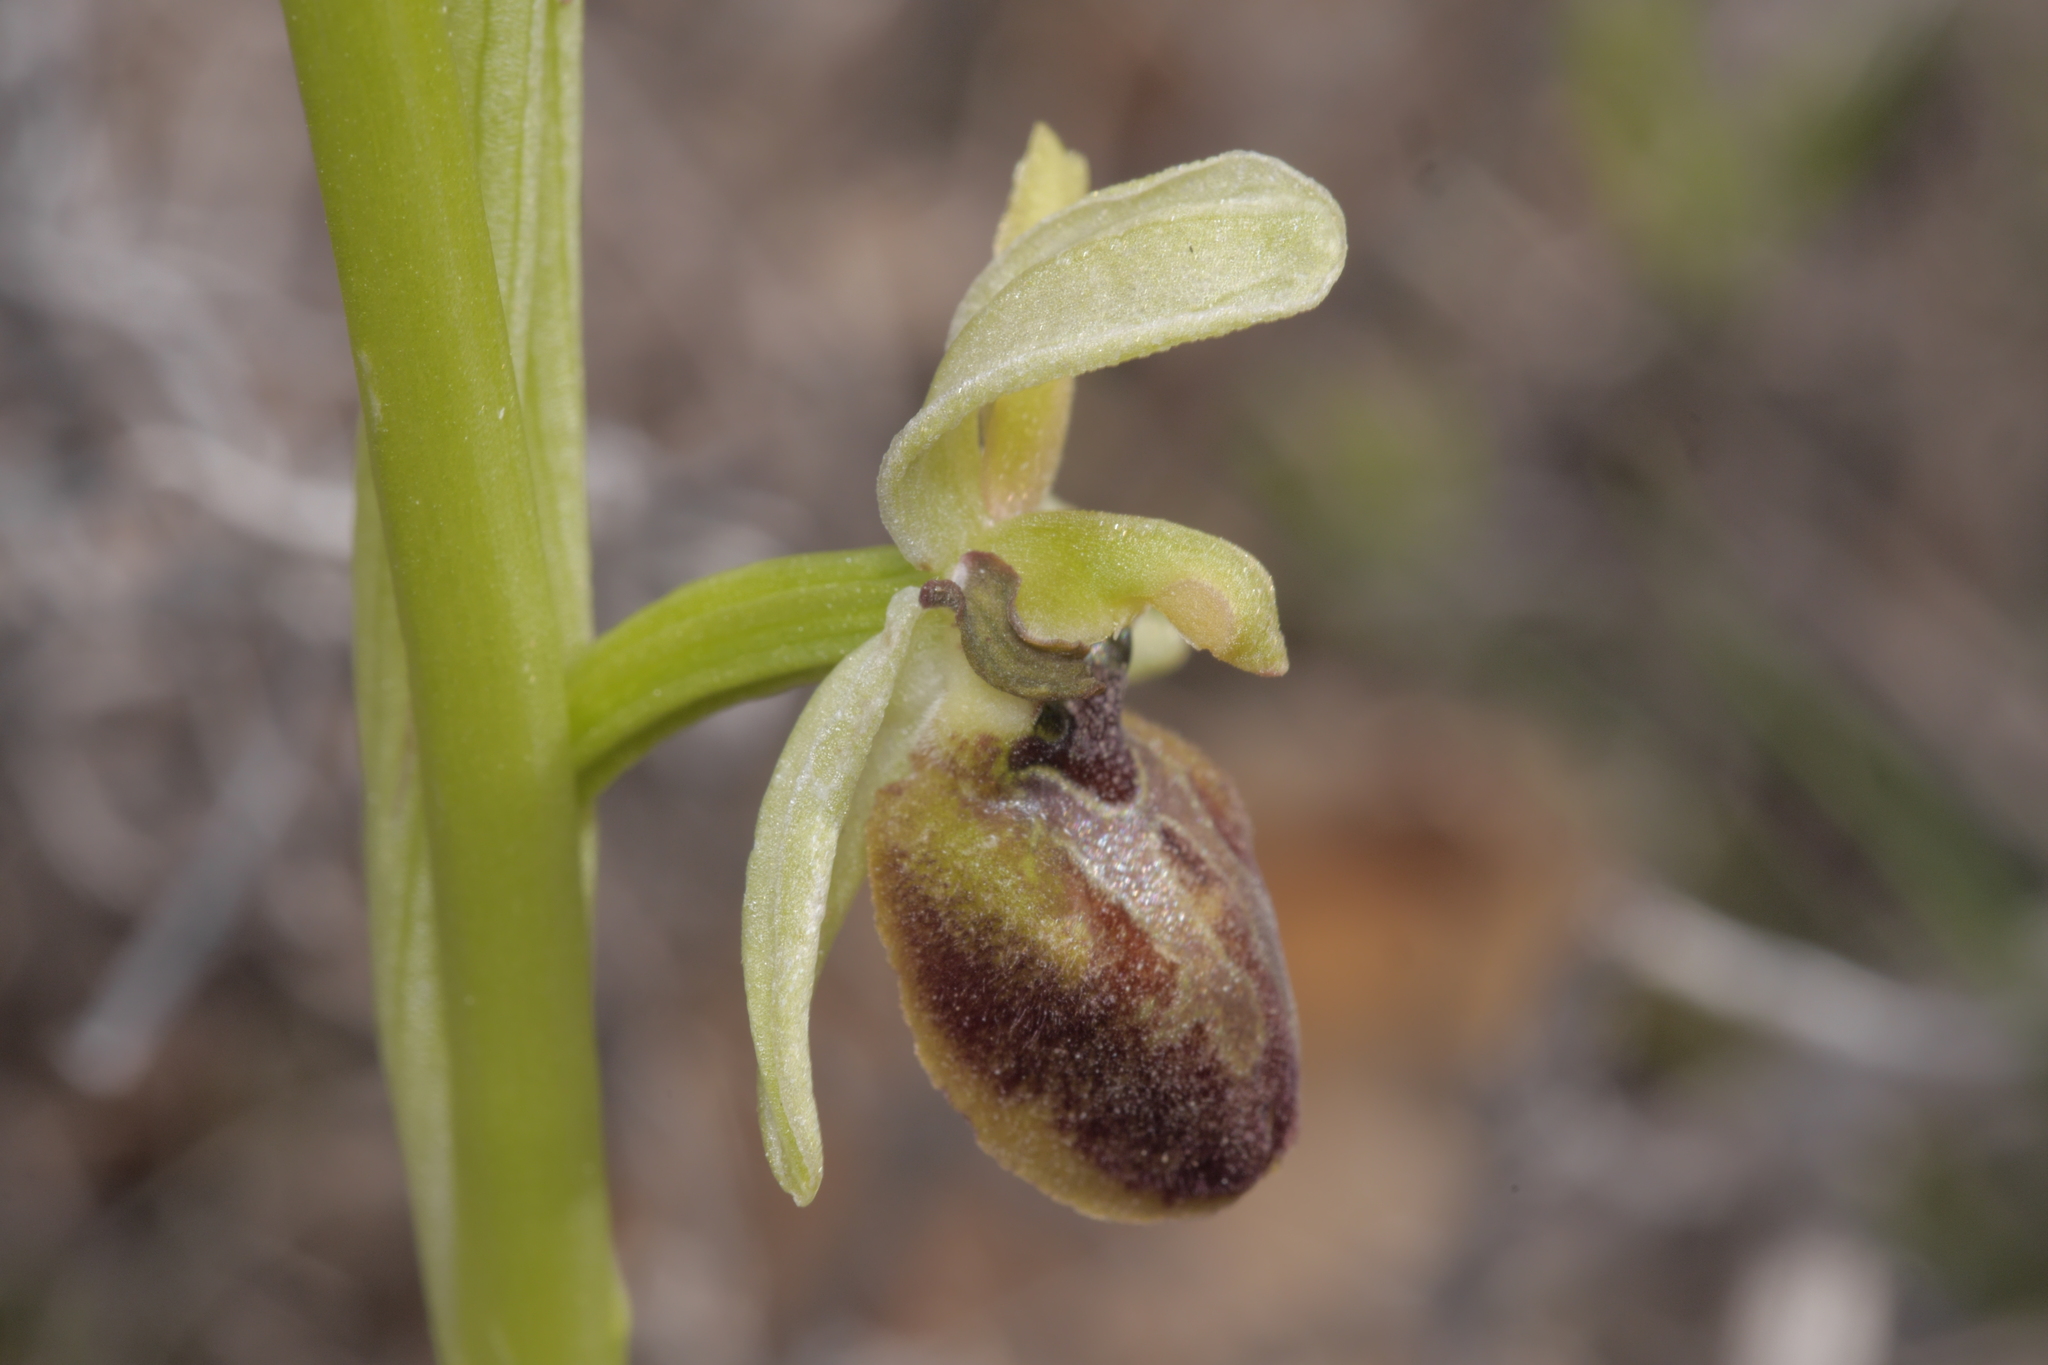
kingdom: Plantae
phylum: Tracheophyta
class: Liliopsida
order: Asparagales
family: Orchidaceae
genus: Ophrys
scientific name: Ophrys sphegodes
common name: Early spider-orchid
